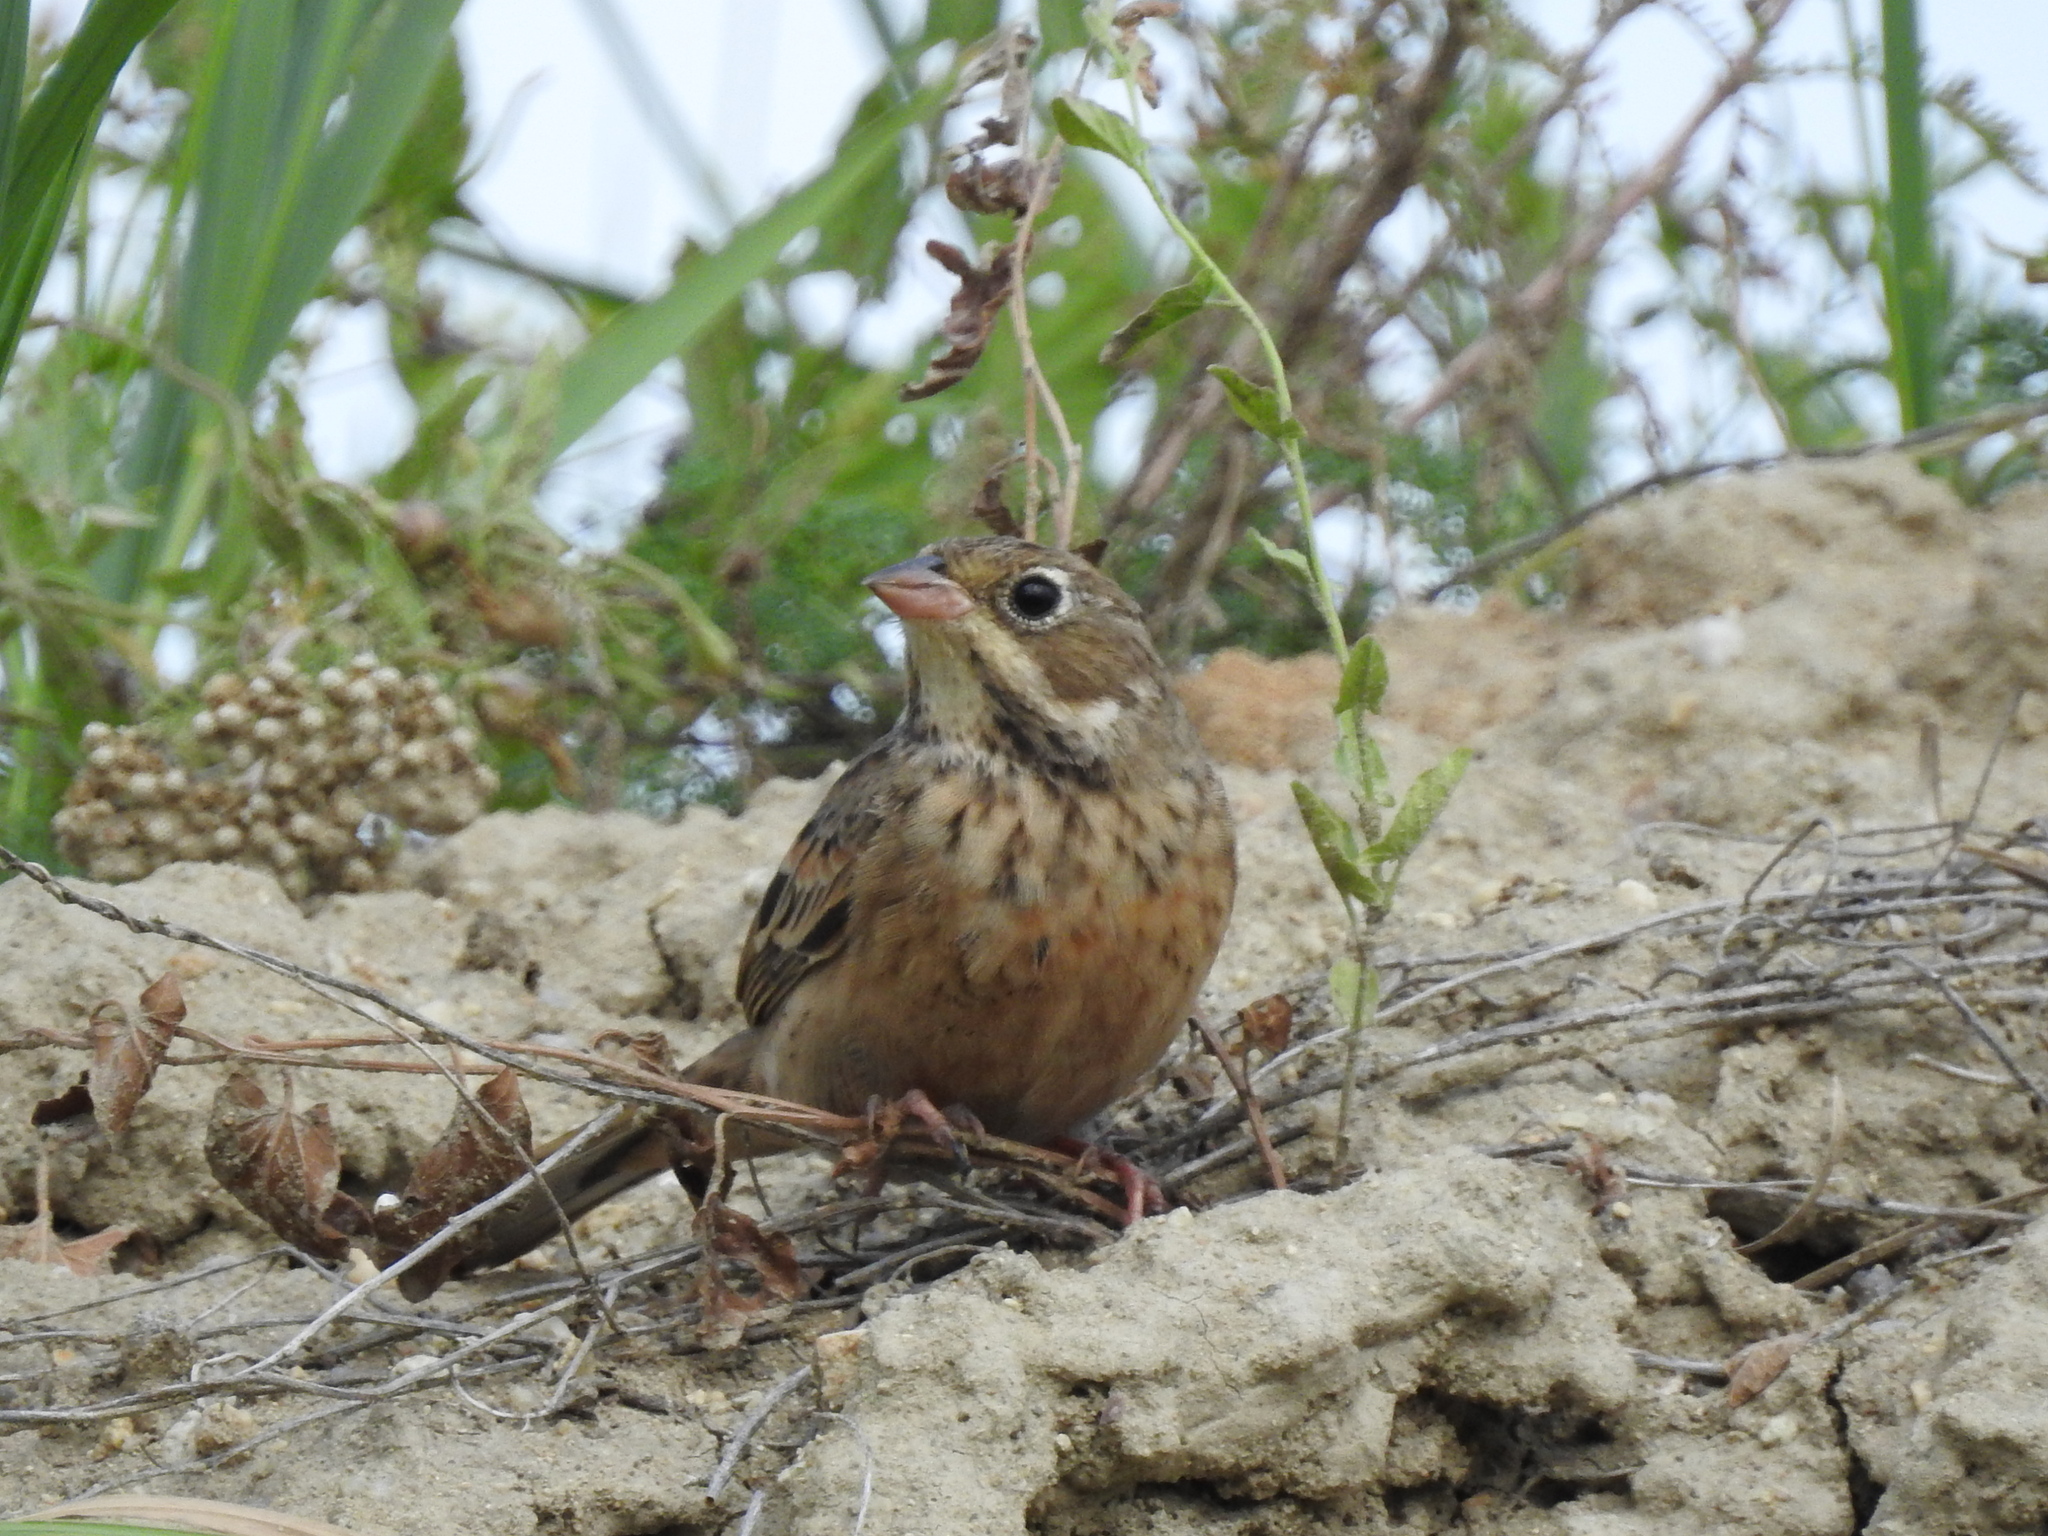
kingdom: Animalia
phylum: Chordata
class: Aves
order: Passeriformes
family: Emberizidae
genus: Emberiza
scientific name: Emberiza hortulana
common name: Ortolan bunting
